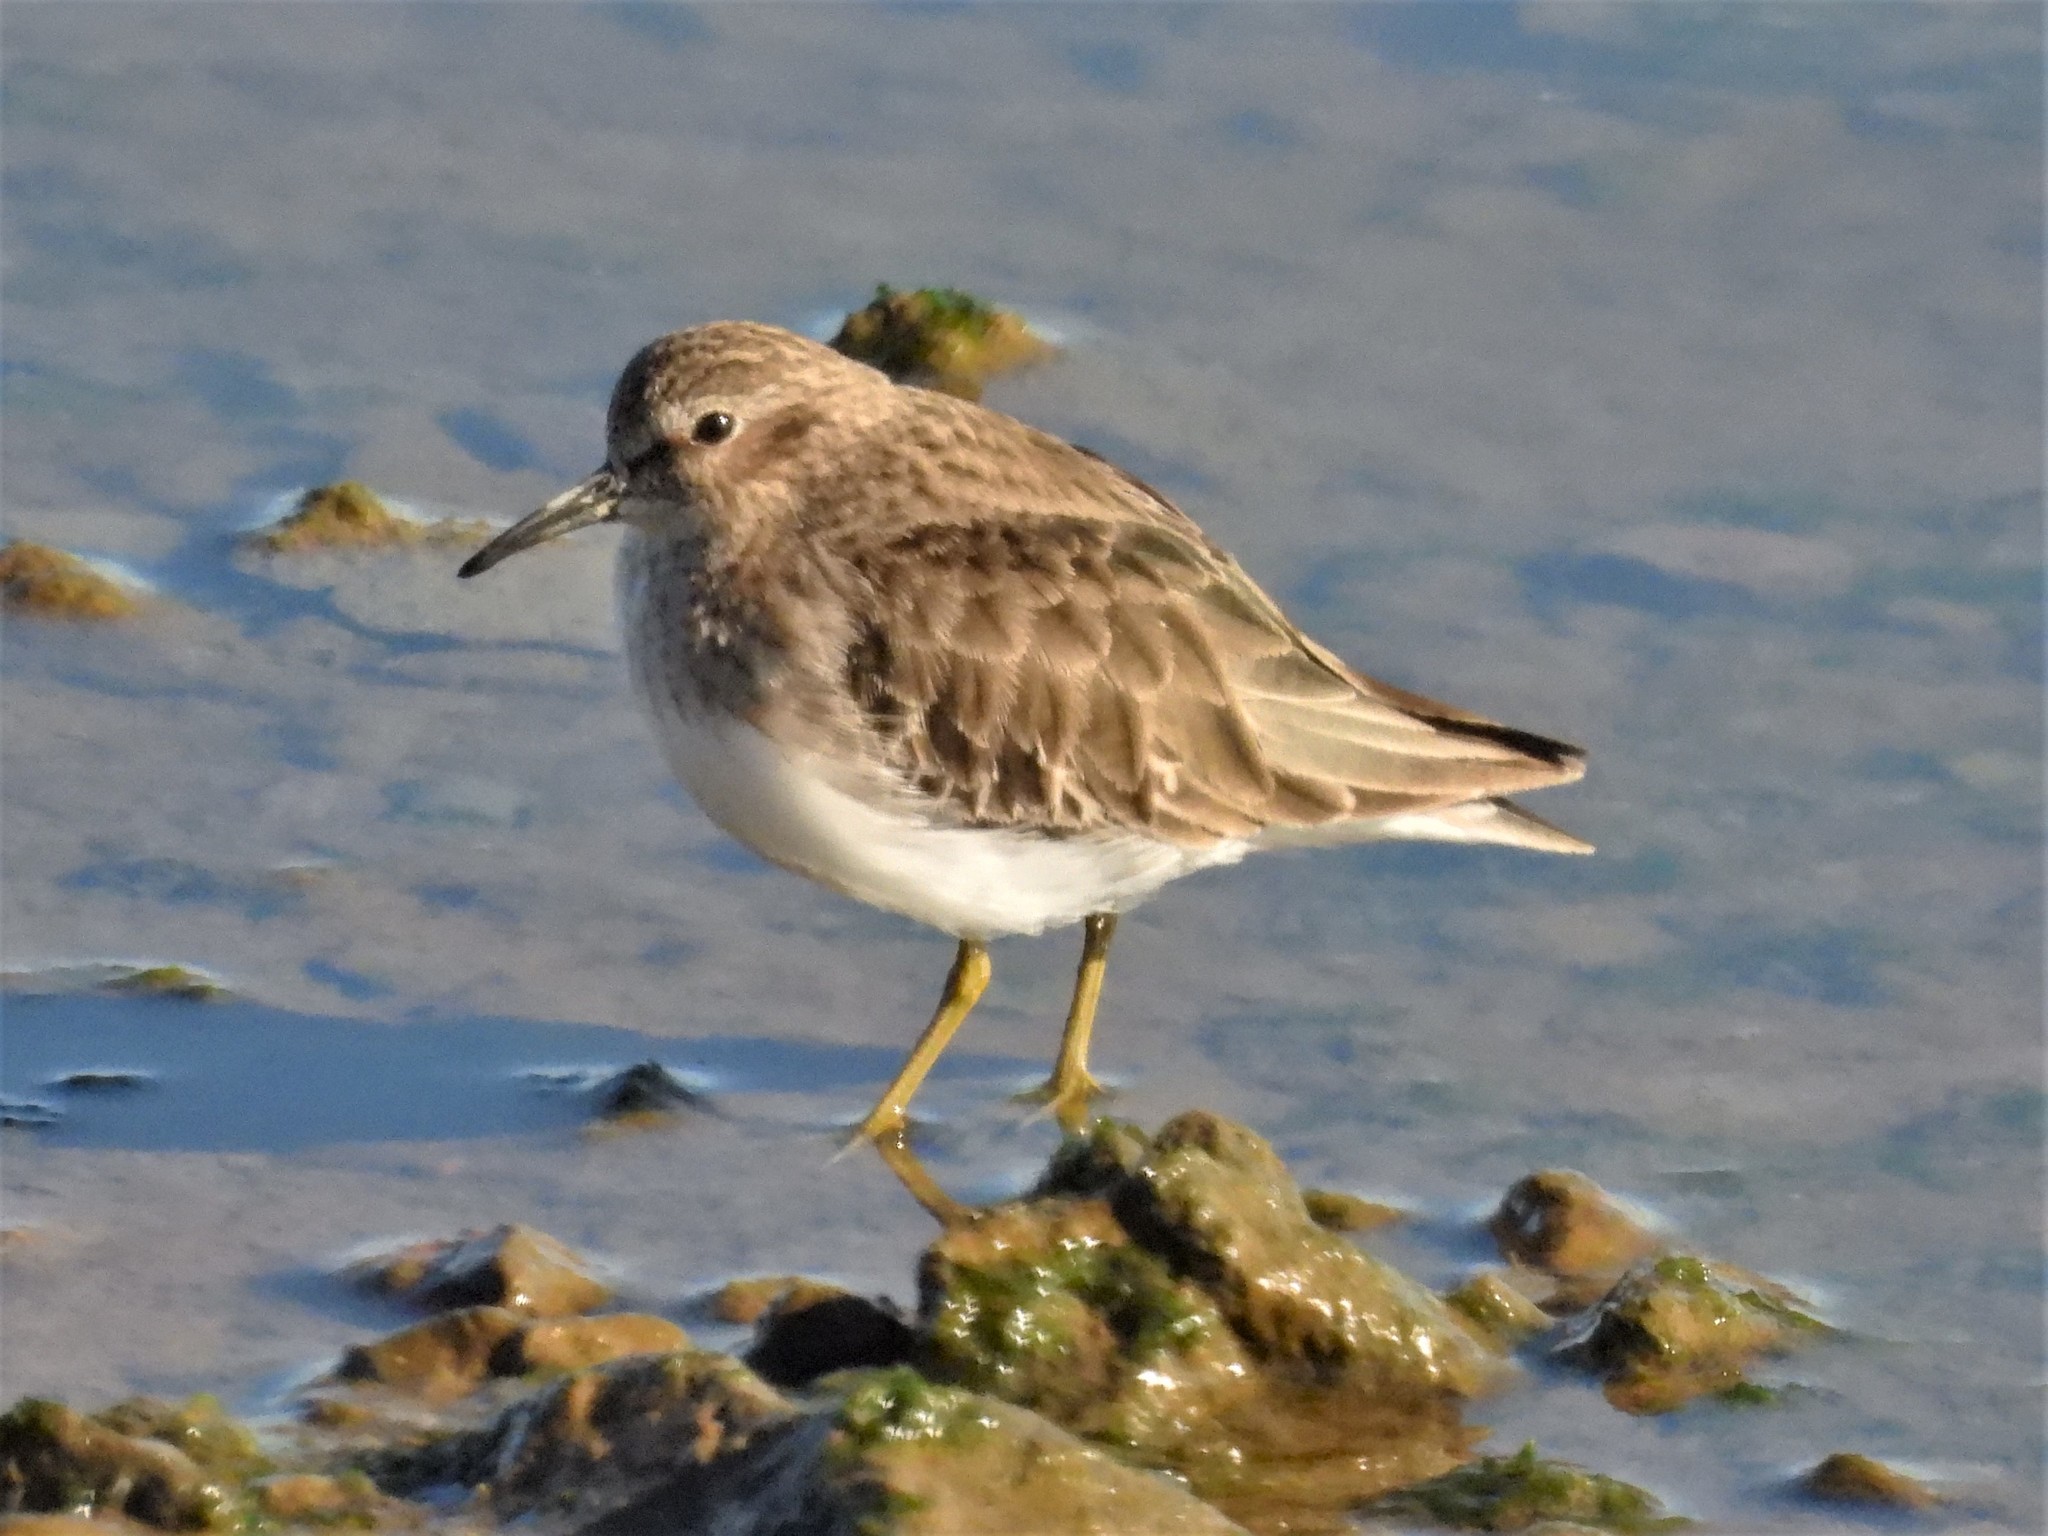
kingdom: Animalia
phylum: Chordata
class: Aves
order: Charadriiformes
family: Scolopacidae
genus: Calidris
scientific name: Calidris minutilla
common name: Least sandpiper
